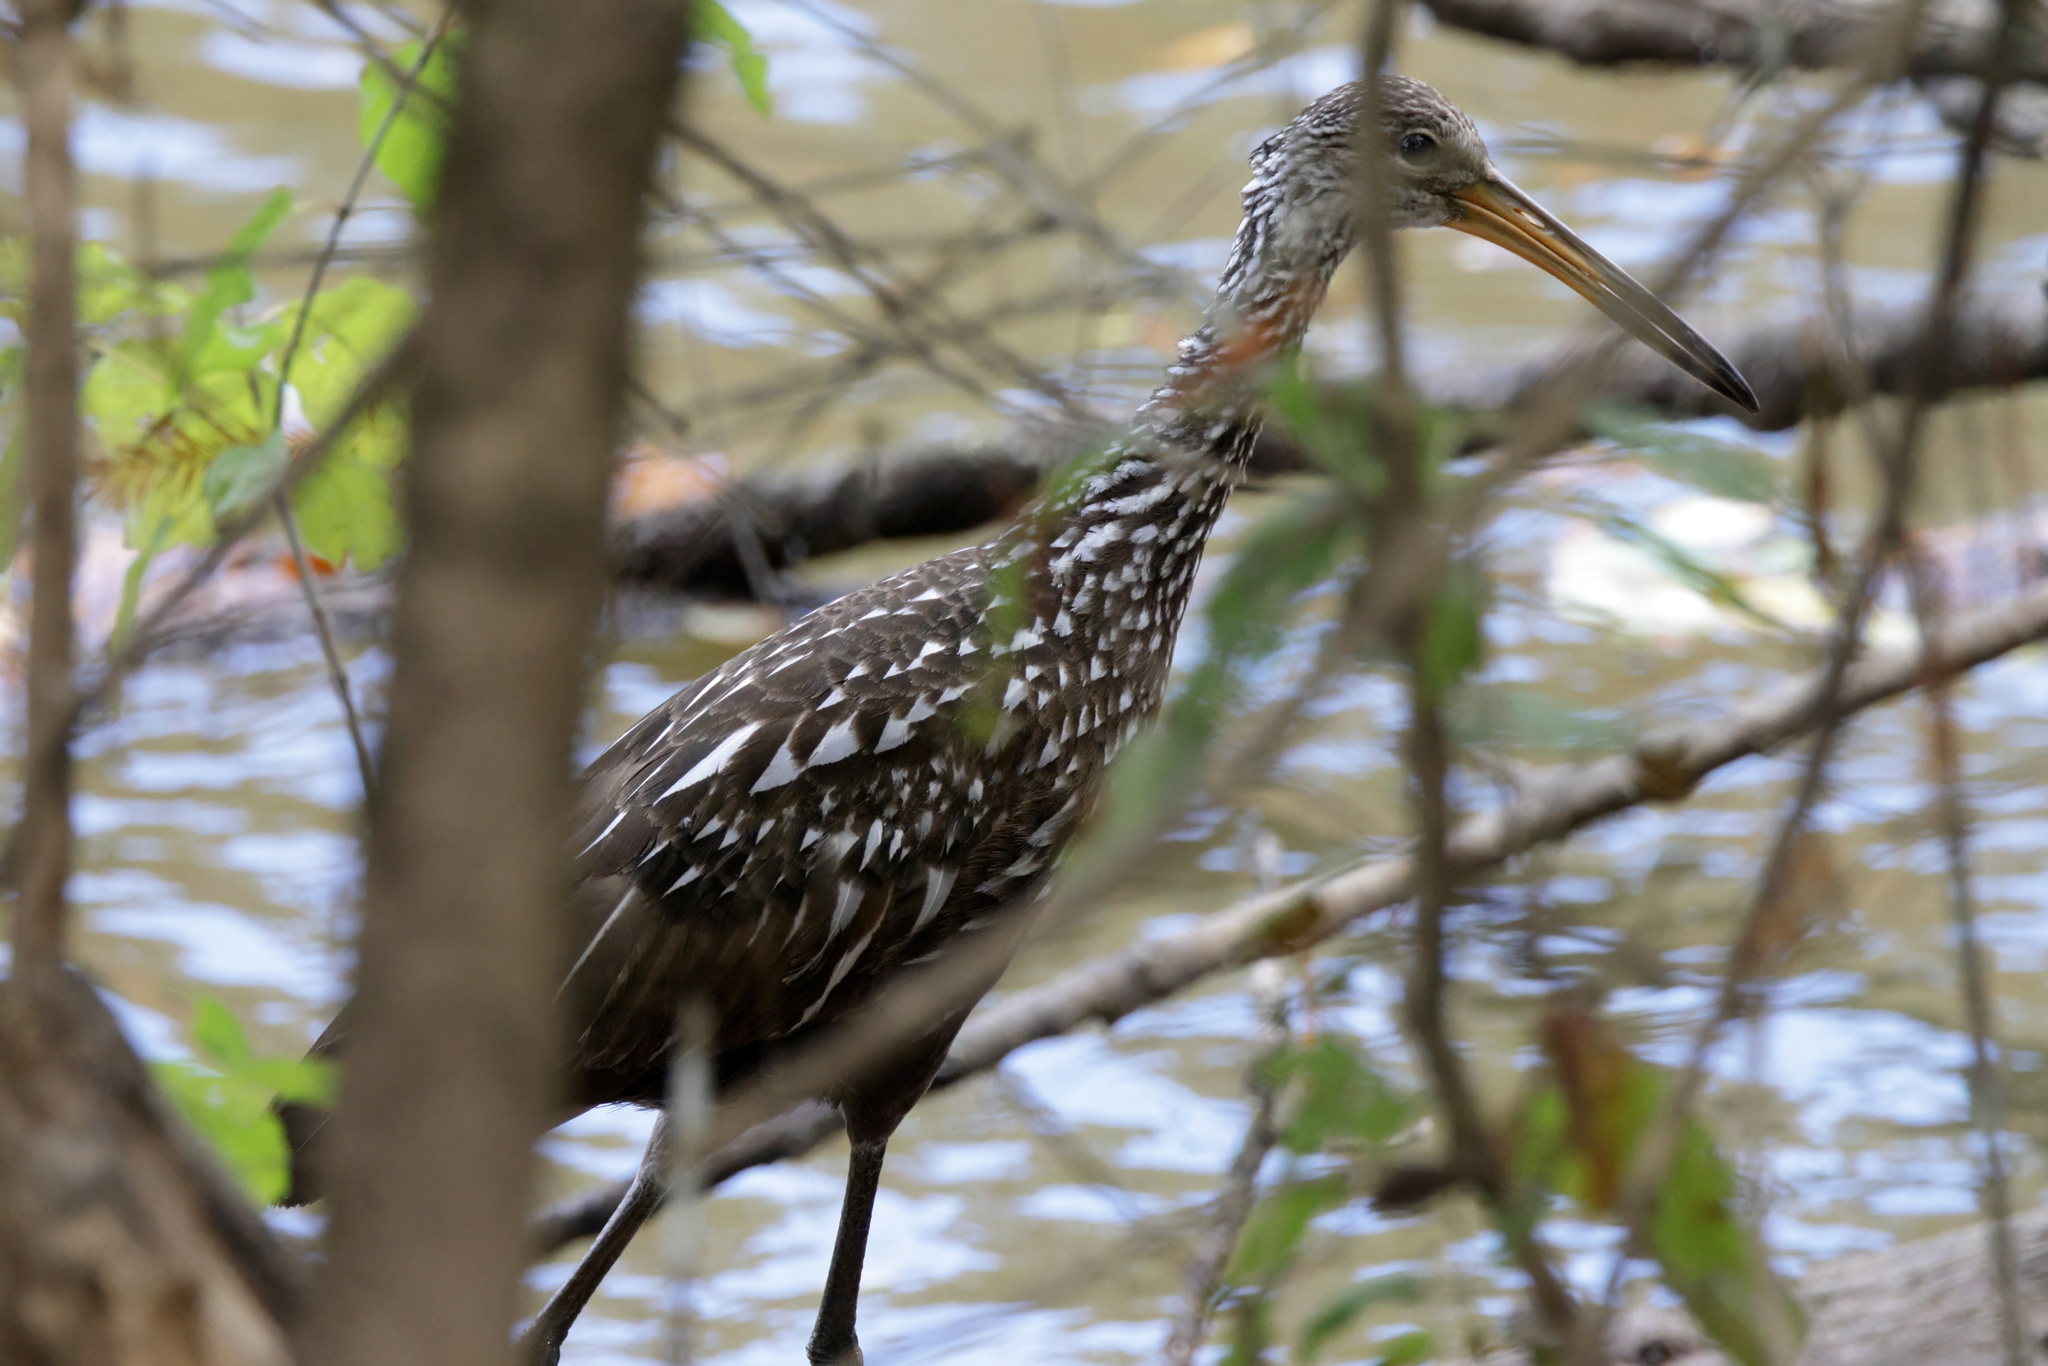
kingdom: Animalia
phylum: Chordata
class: Aves
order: Gruiformes
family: Aramidae
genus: Aramus
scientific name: Aramus guarauna
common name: Limpkin
